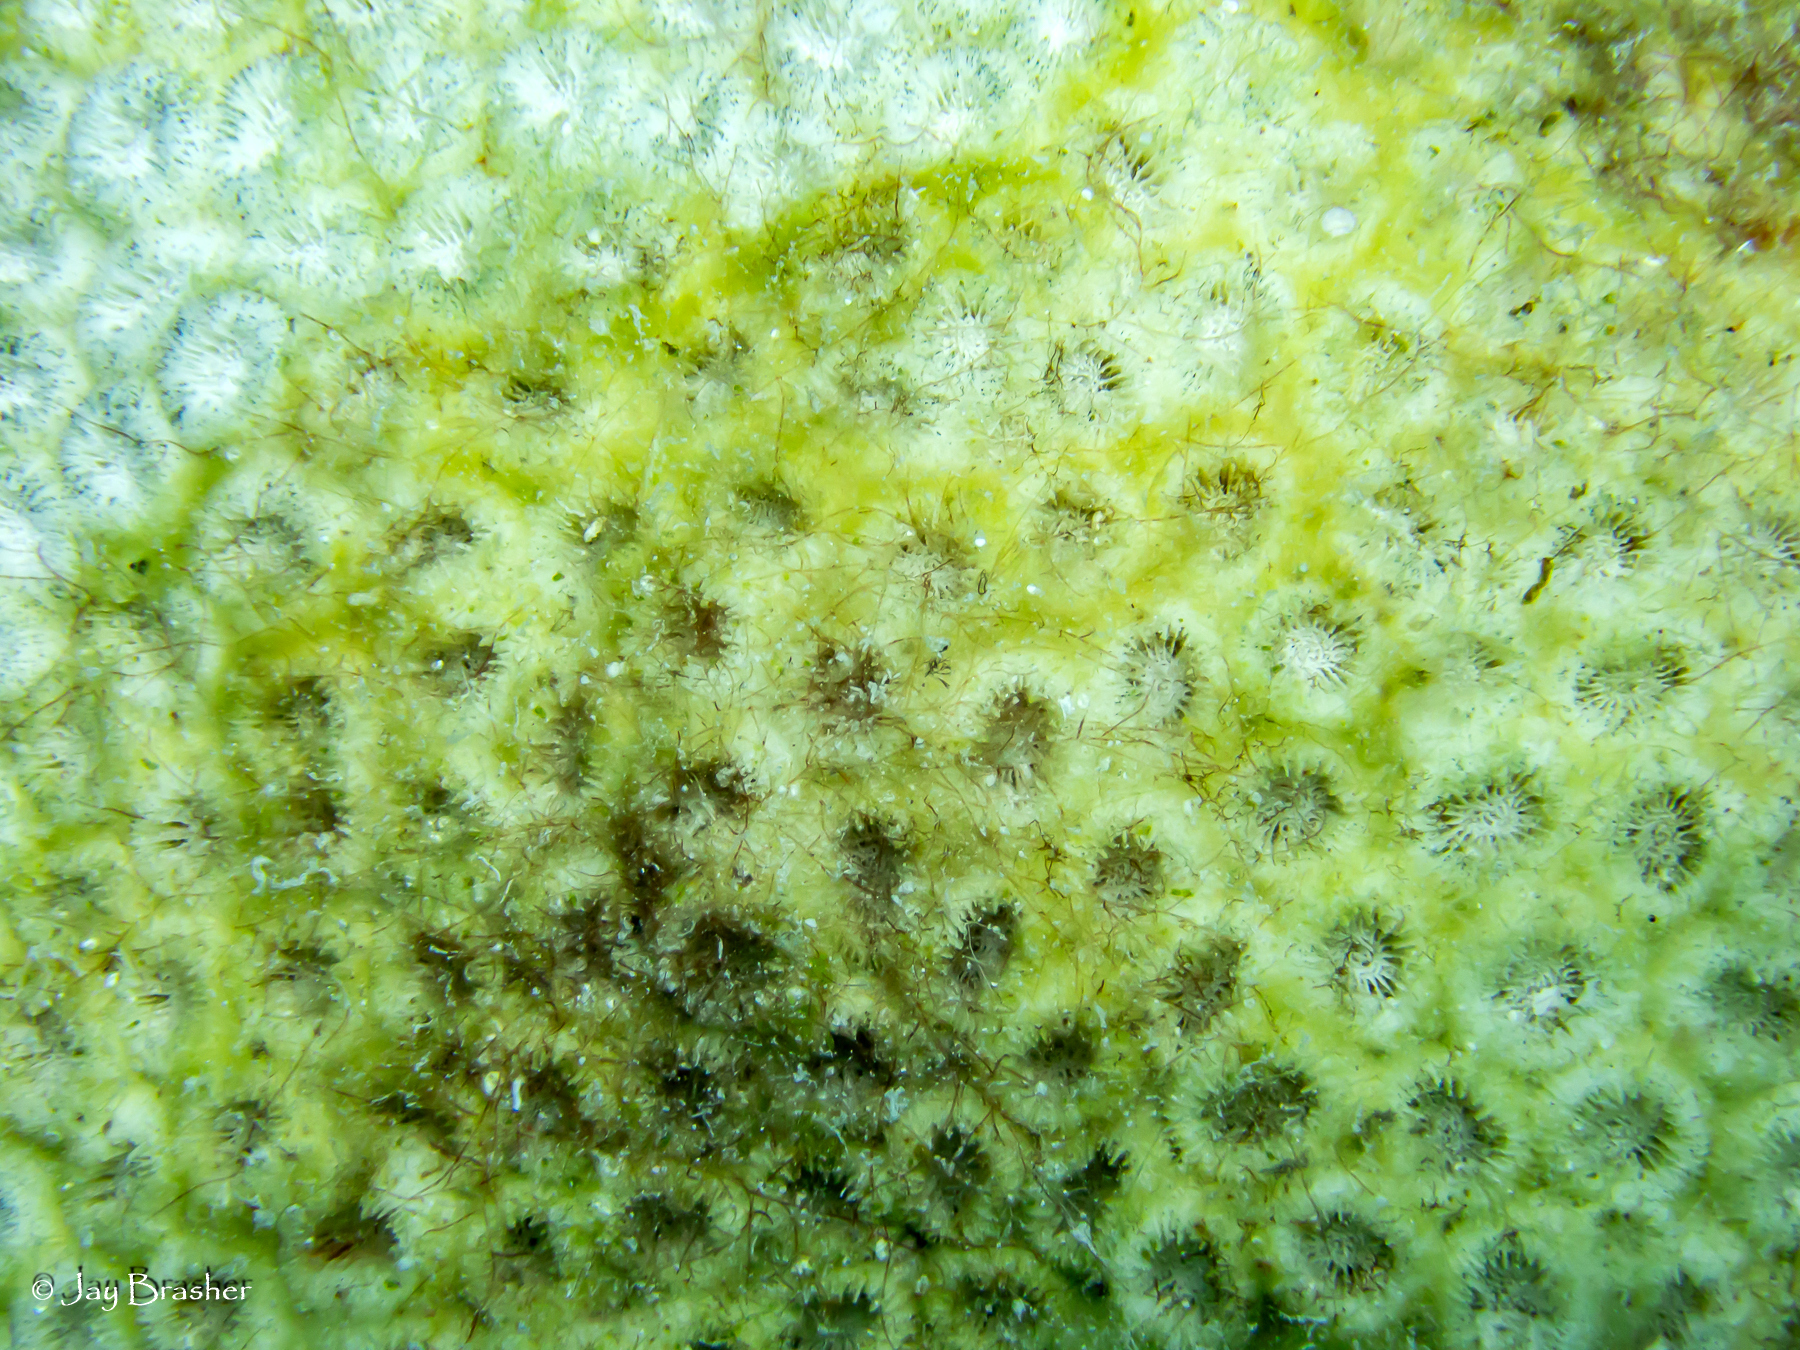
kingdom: Animalia
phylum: Cnidaria
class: Anthozoa
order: Scleractinia
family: Montastraeidae
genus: Montastraea
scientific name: Montastraea cavernosa
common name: Great star coral
